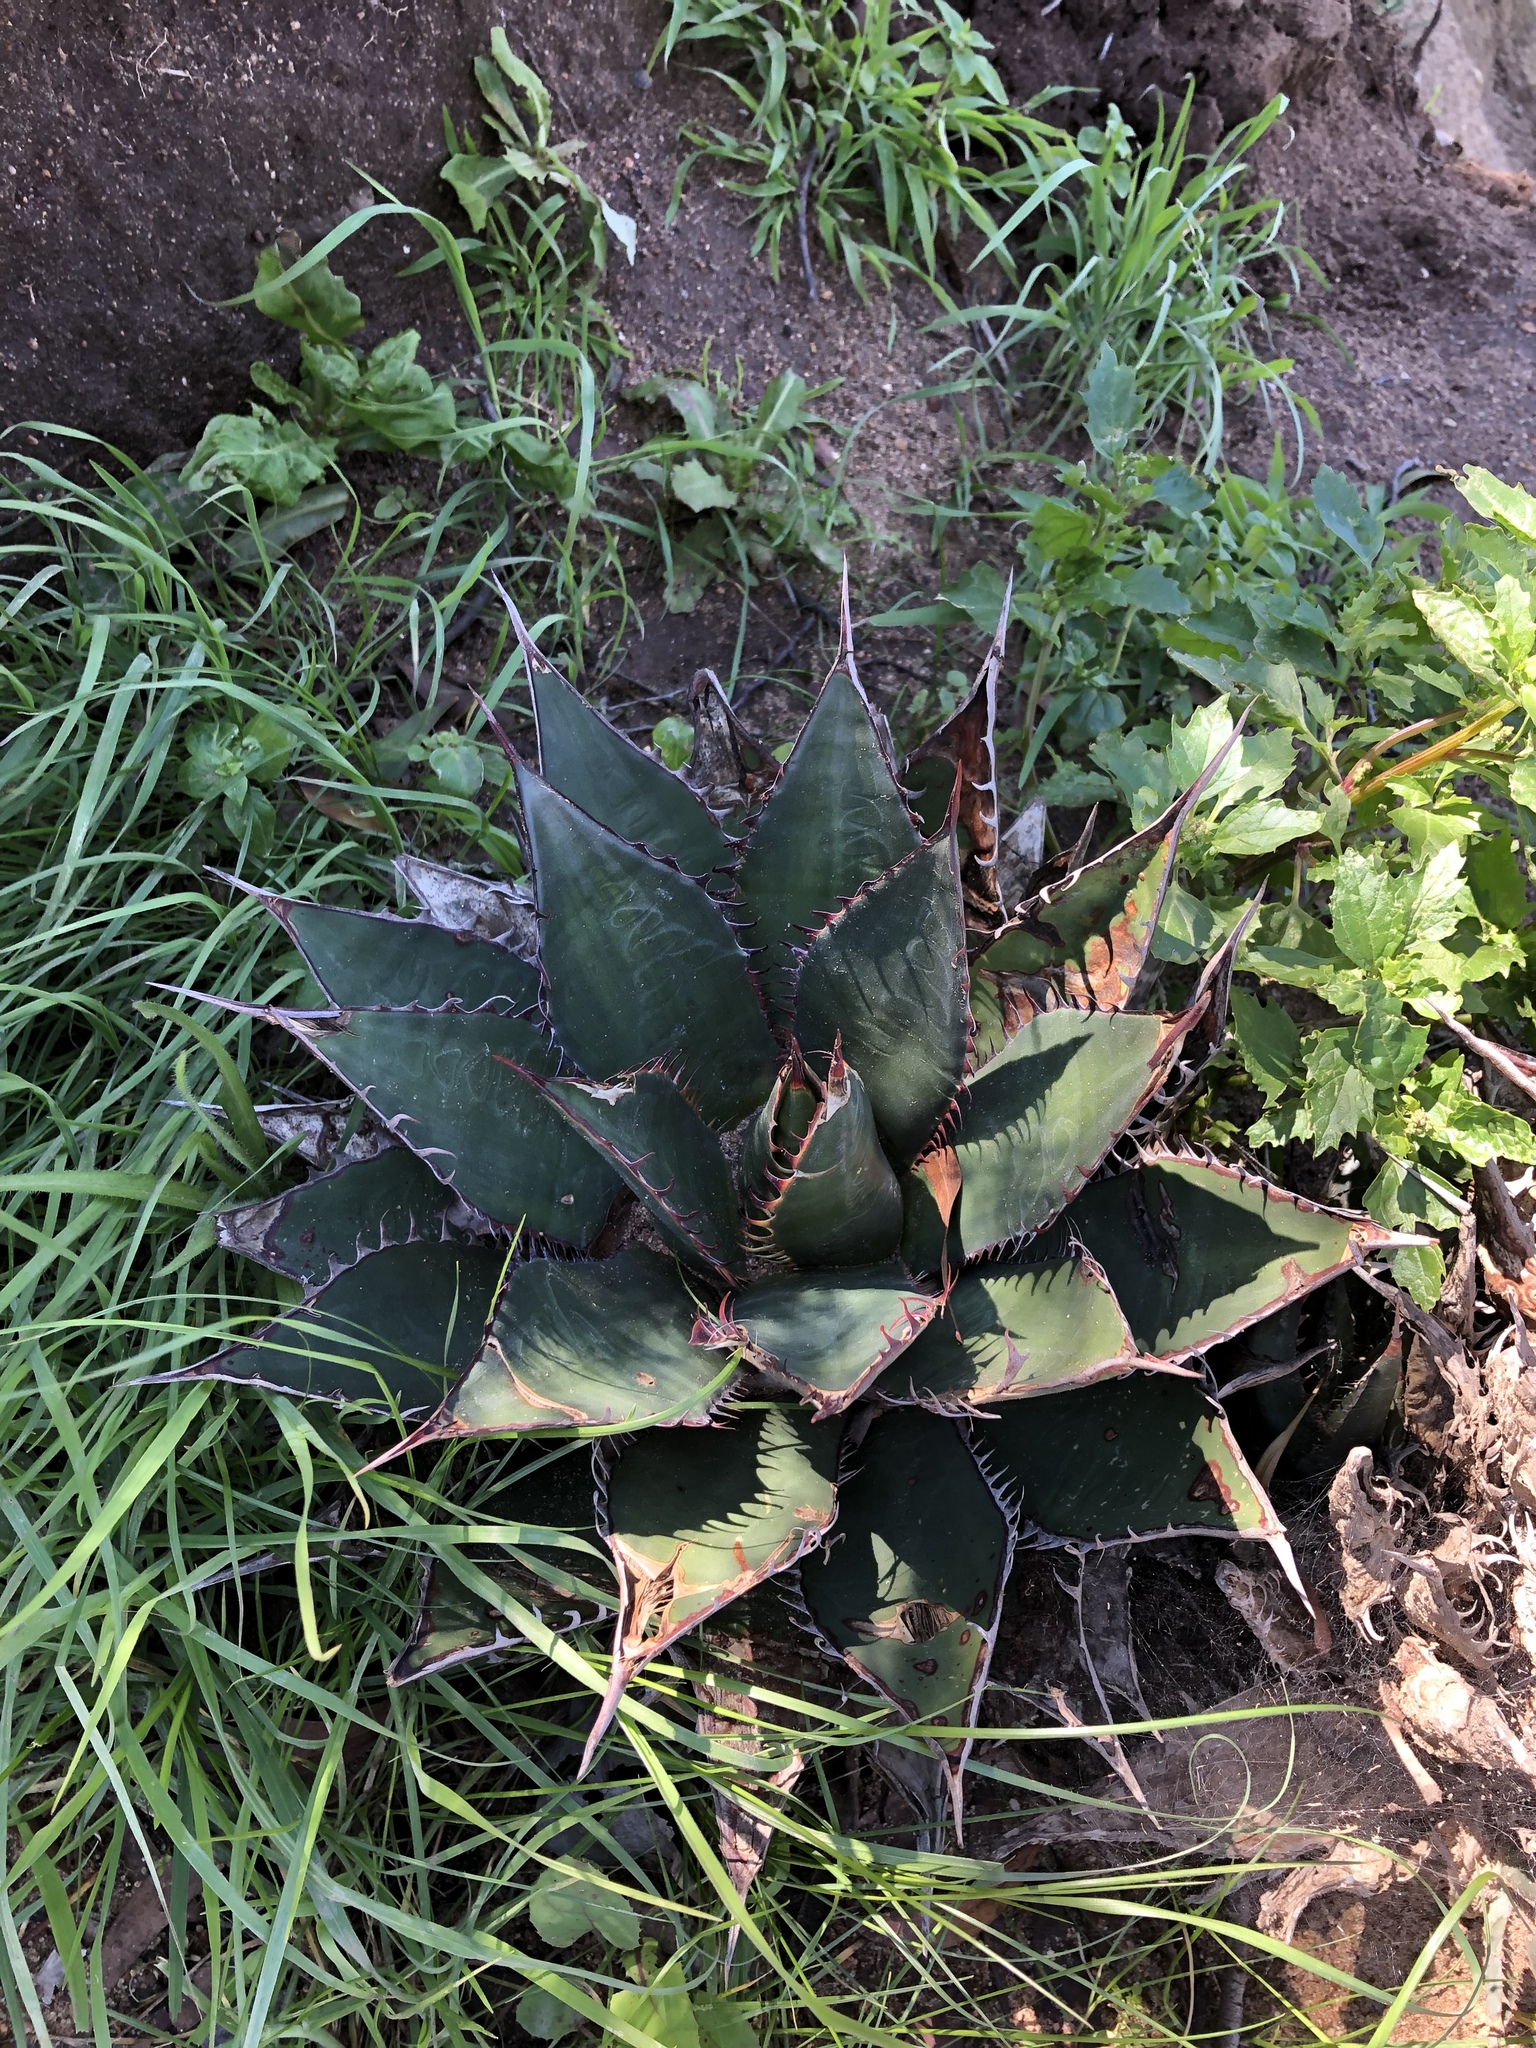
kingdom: Plantae
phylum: Tracheophyta
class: Liliopsida
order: Asparagales
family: Asparagaceae
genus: Agave
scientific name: Agave shawii
